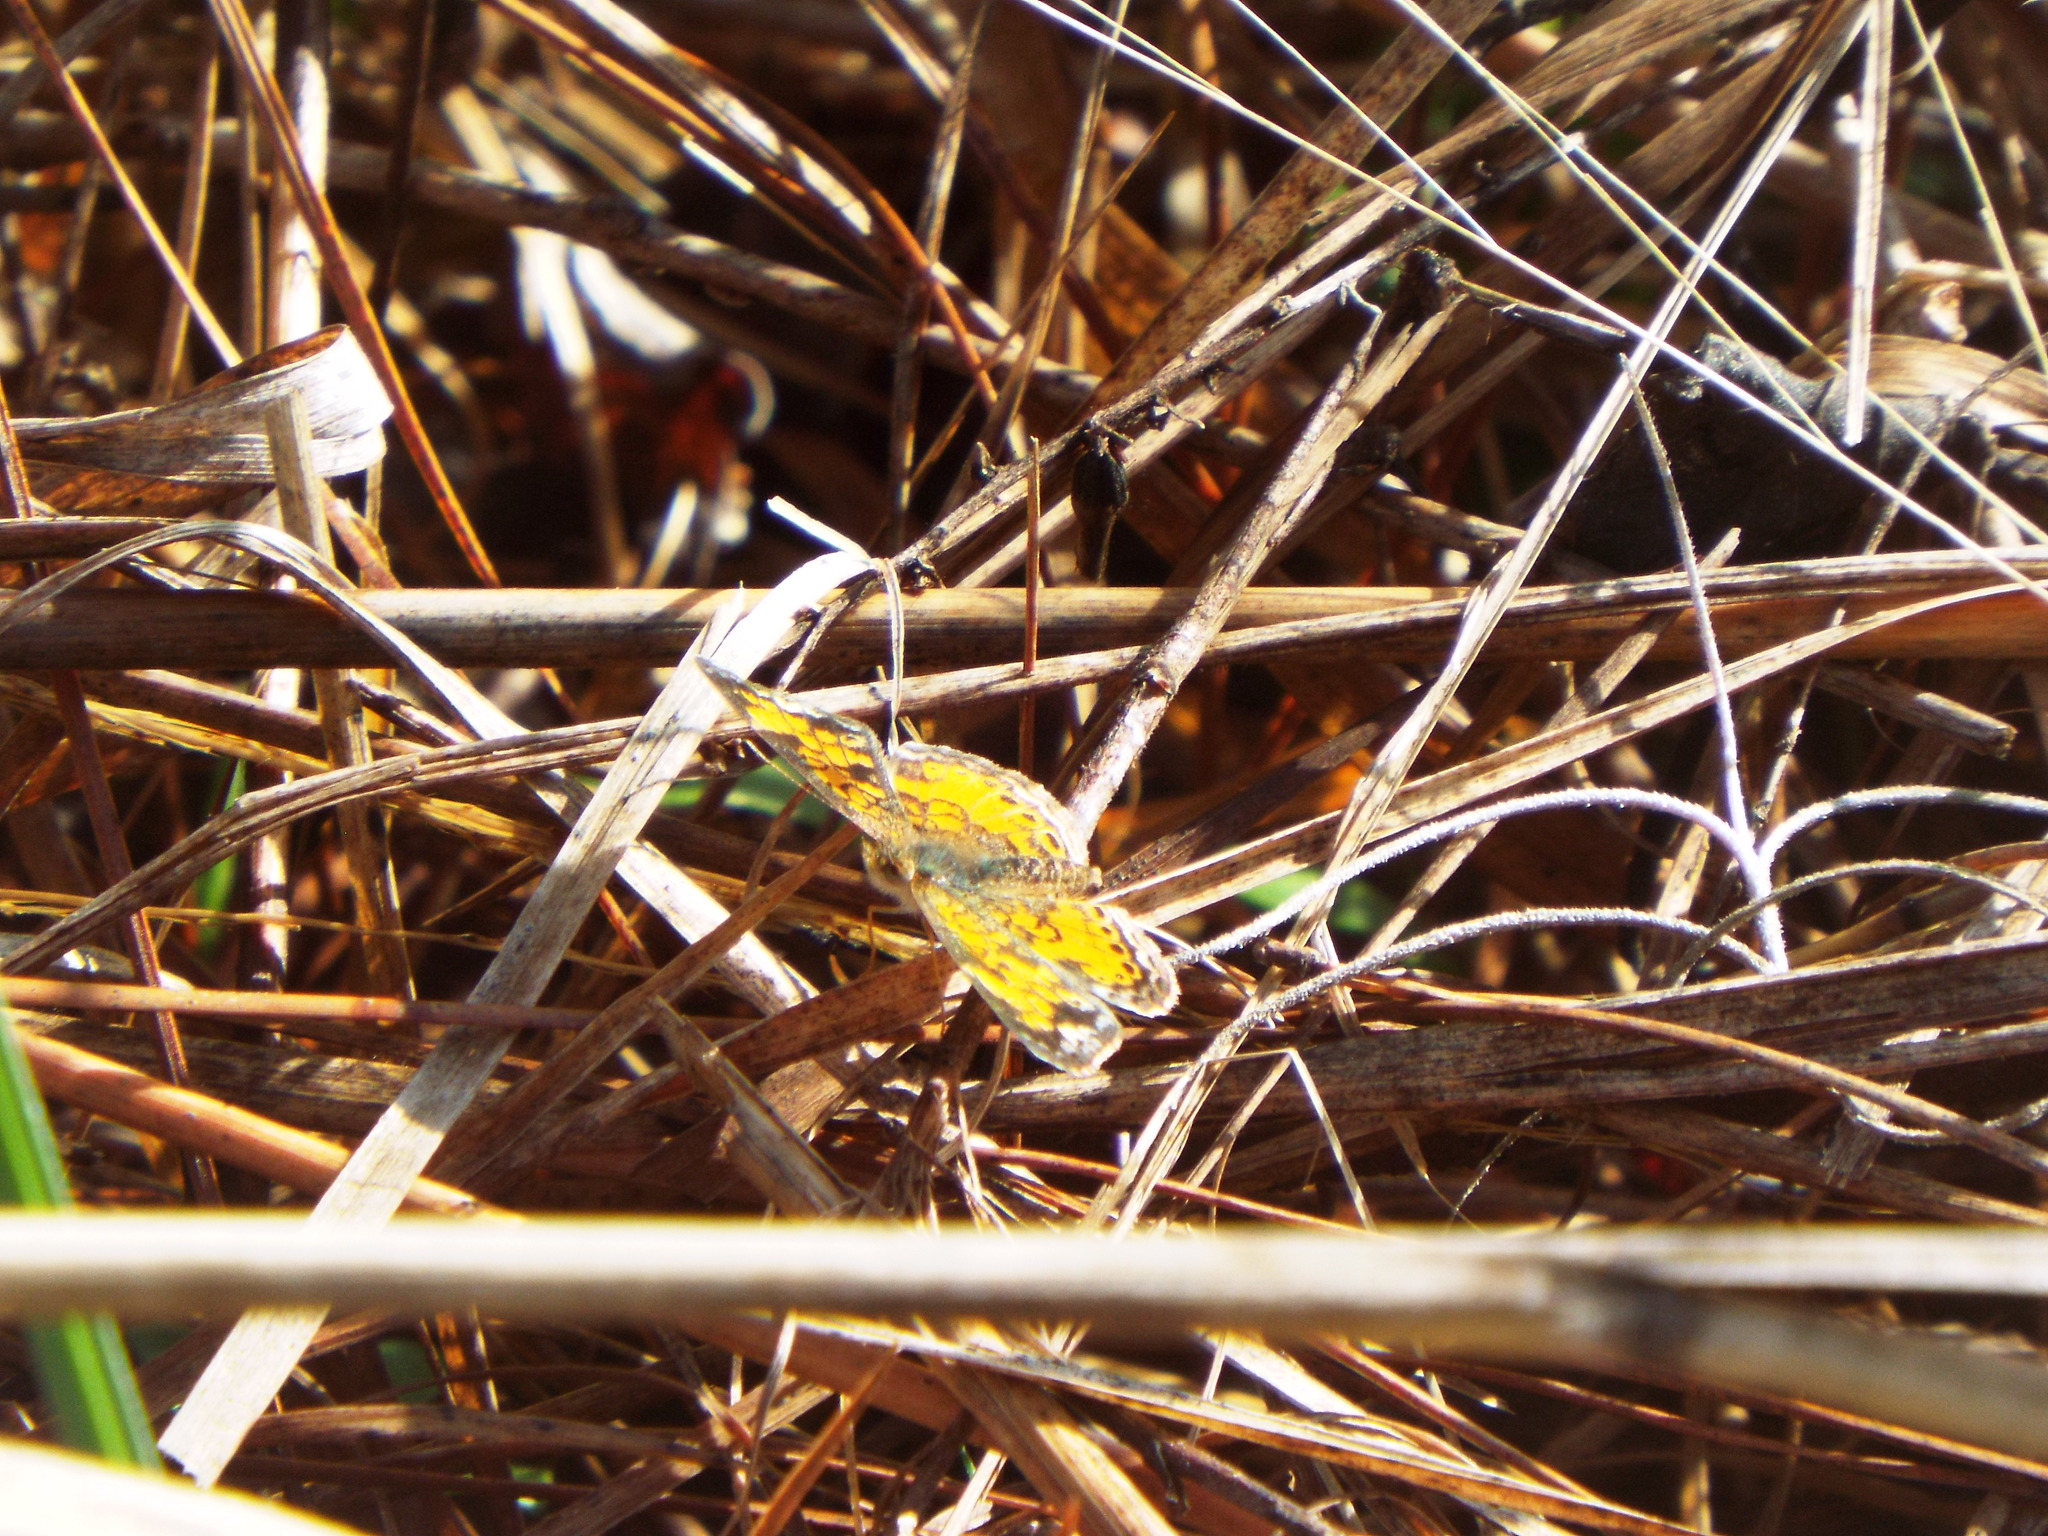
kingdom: Animalia
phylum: Arthropoda
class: Insecta
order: Lepidoptera
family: Nymphalidae
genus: Phyciodes
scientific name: Phyciodes tharos
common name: Pearl crescent
